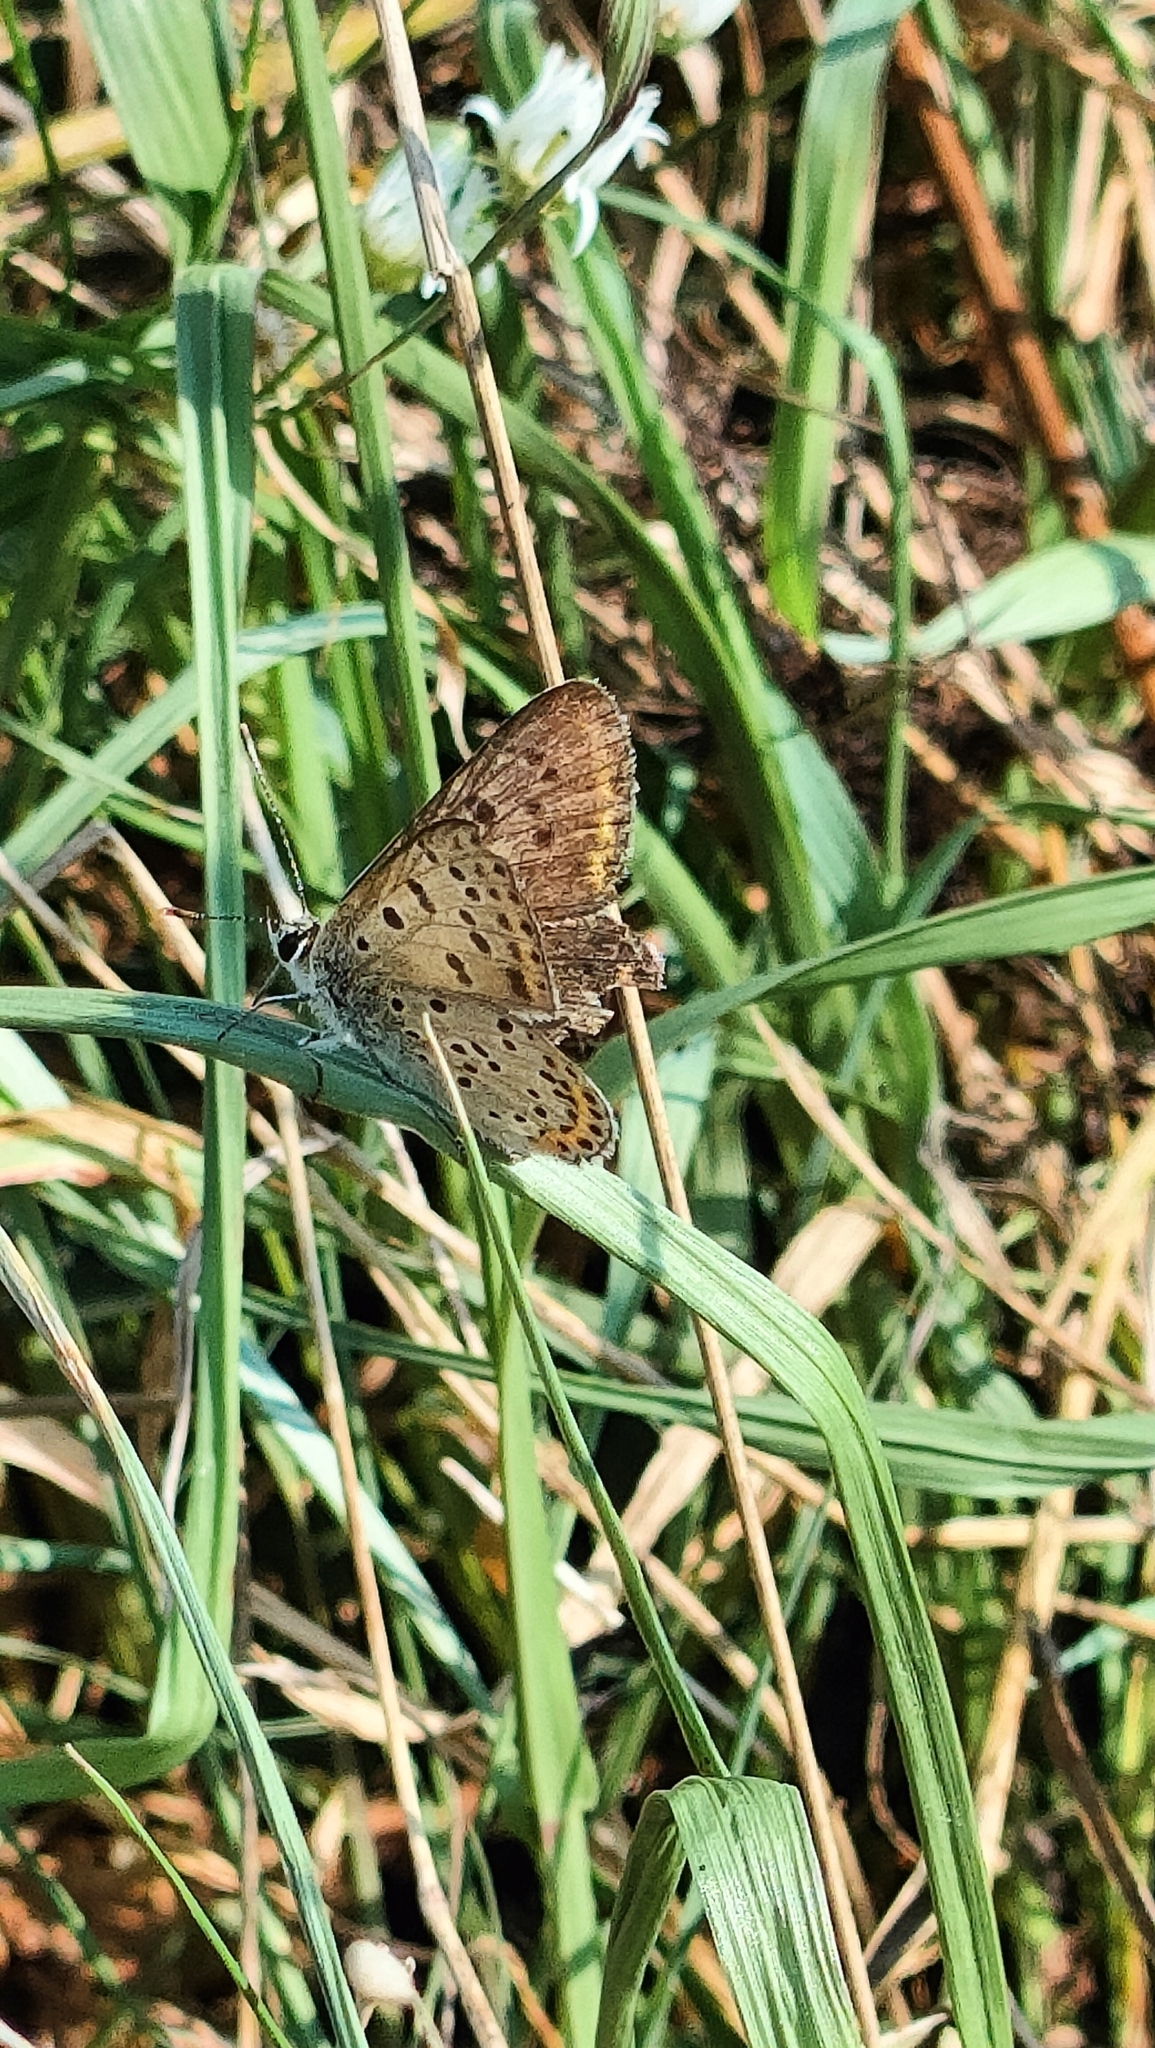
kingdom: Animalia
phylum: Arthropoda
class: Insecta
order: Lepidoptera
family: Lycaenidae
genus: Loweia
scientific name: Loweia tityrus
